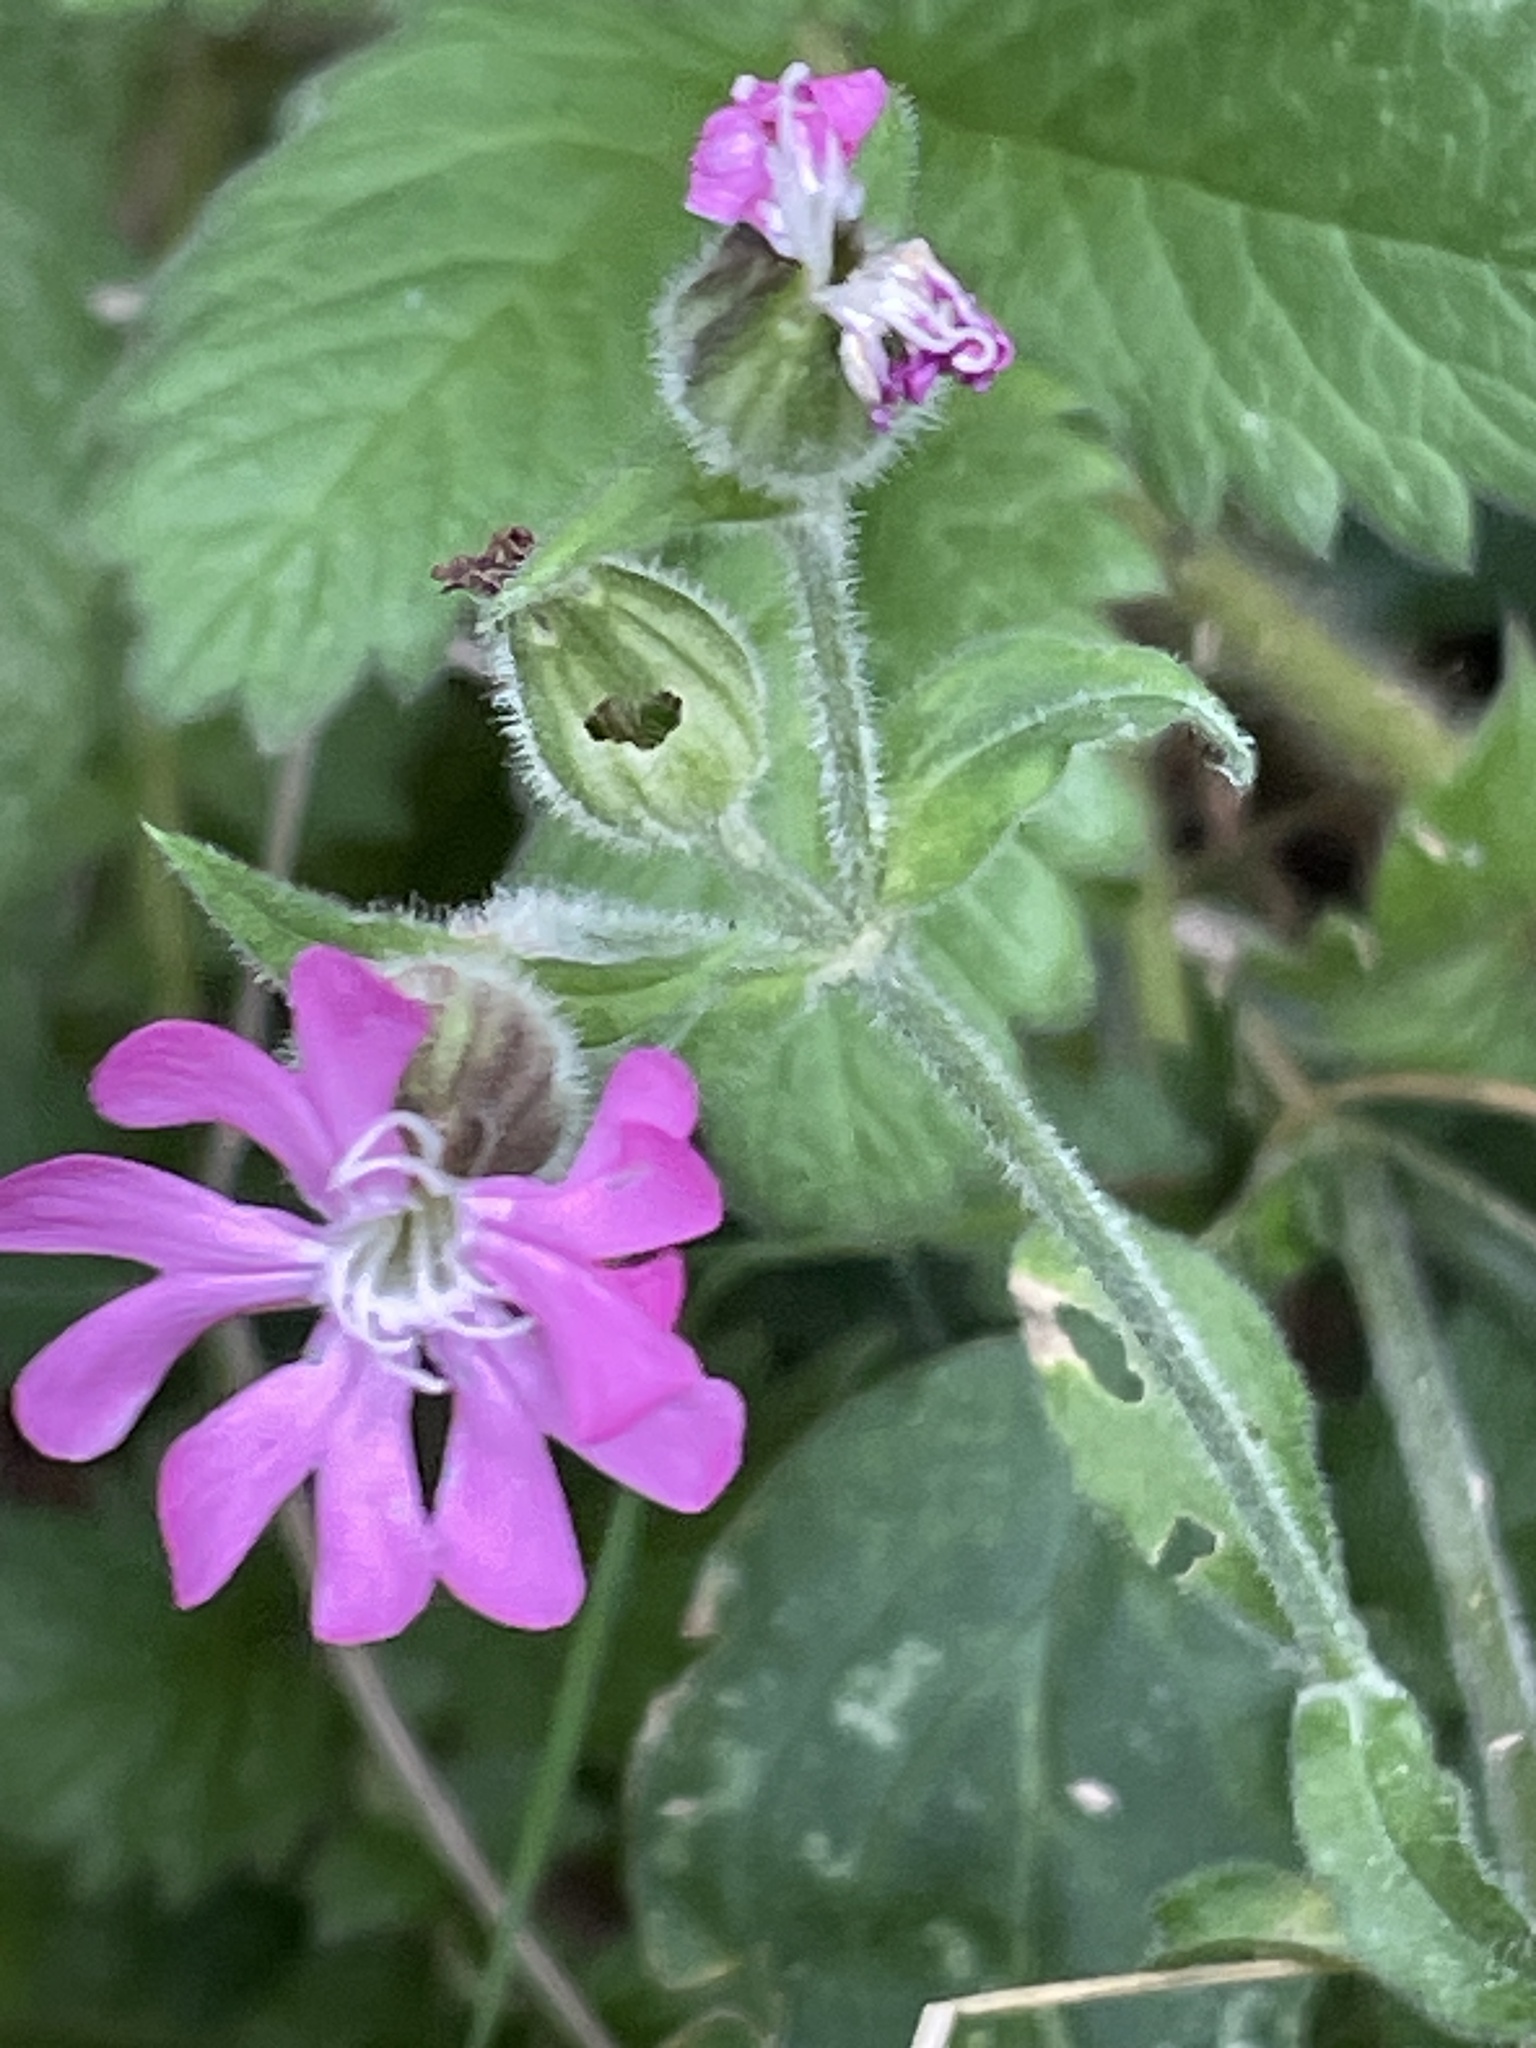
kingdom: Plantae
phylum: Tracheophyta
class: Magnoliopsida
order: Caryophyllales
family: Caryophyllaceae
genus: Silene
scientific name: Silene dioica
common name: Red campion
